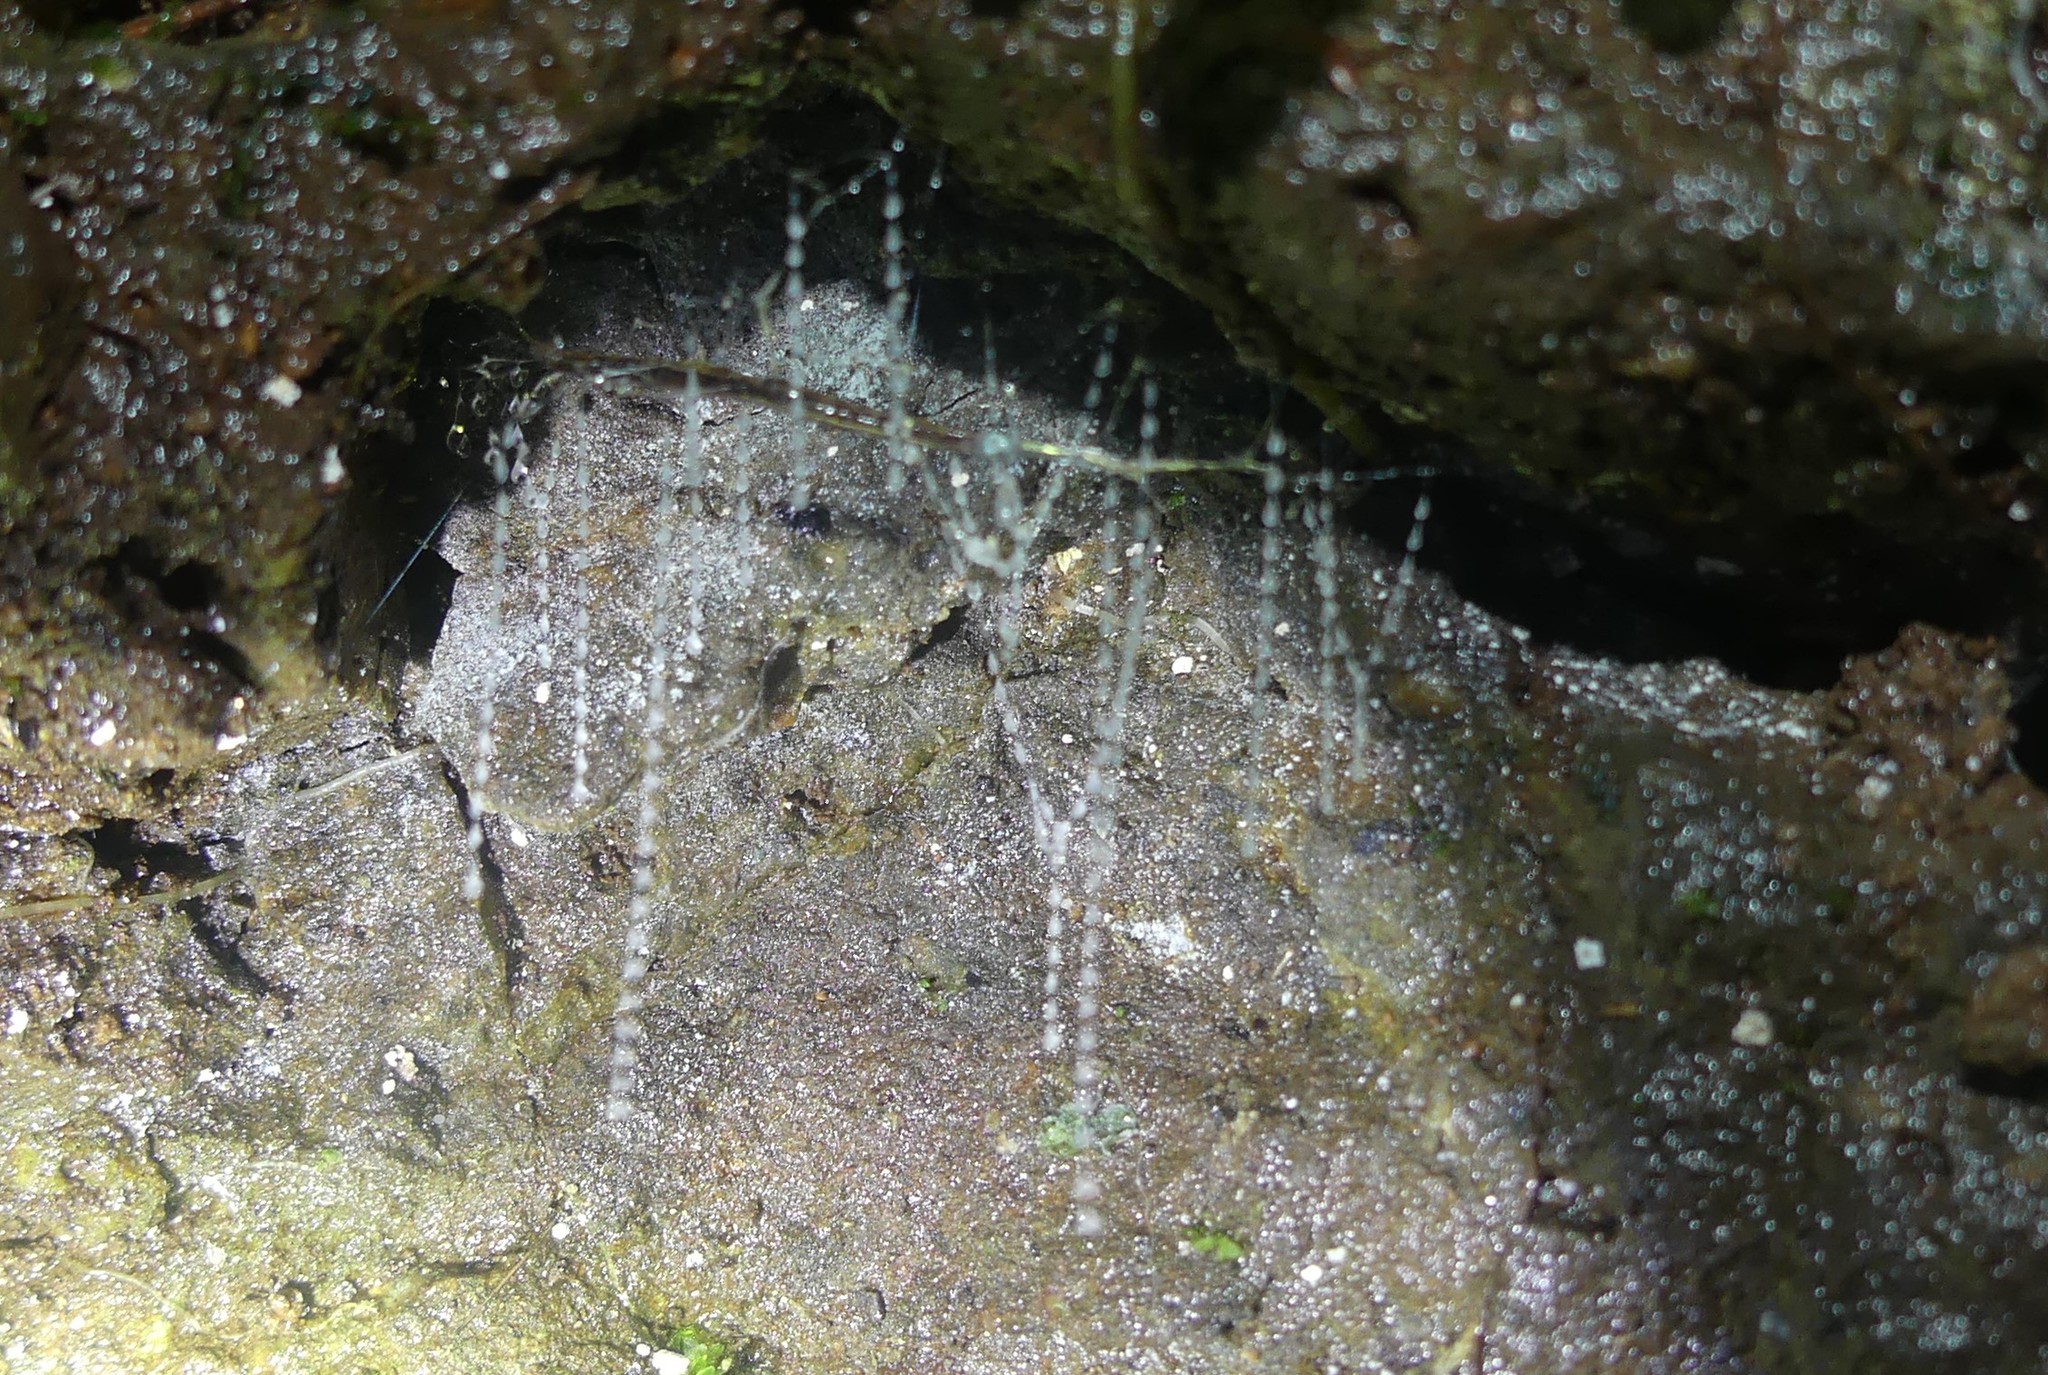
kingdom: Animalia
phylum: Arthropoda
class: Insecta
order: Diptera
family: Keroplatidae
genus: Arachnocampa
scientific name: Arachnocampa flava
